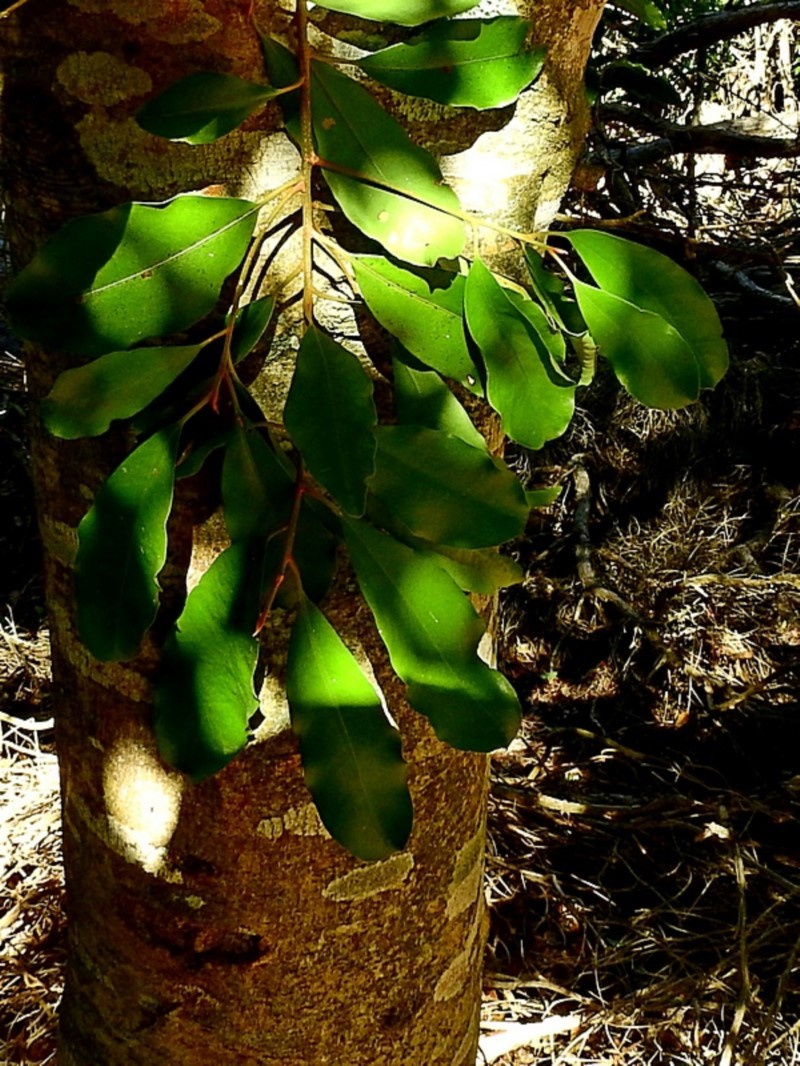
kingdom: Plantae
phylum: Tracheophyta
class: Magnoliopsida
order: Ericales
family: Primulaceae
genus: Myrsine
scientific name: Myrsine howittiana
